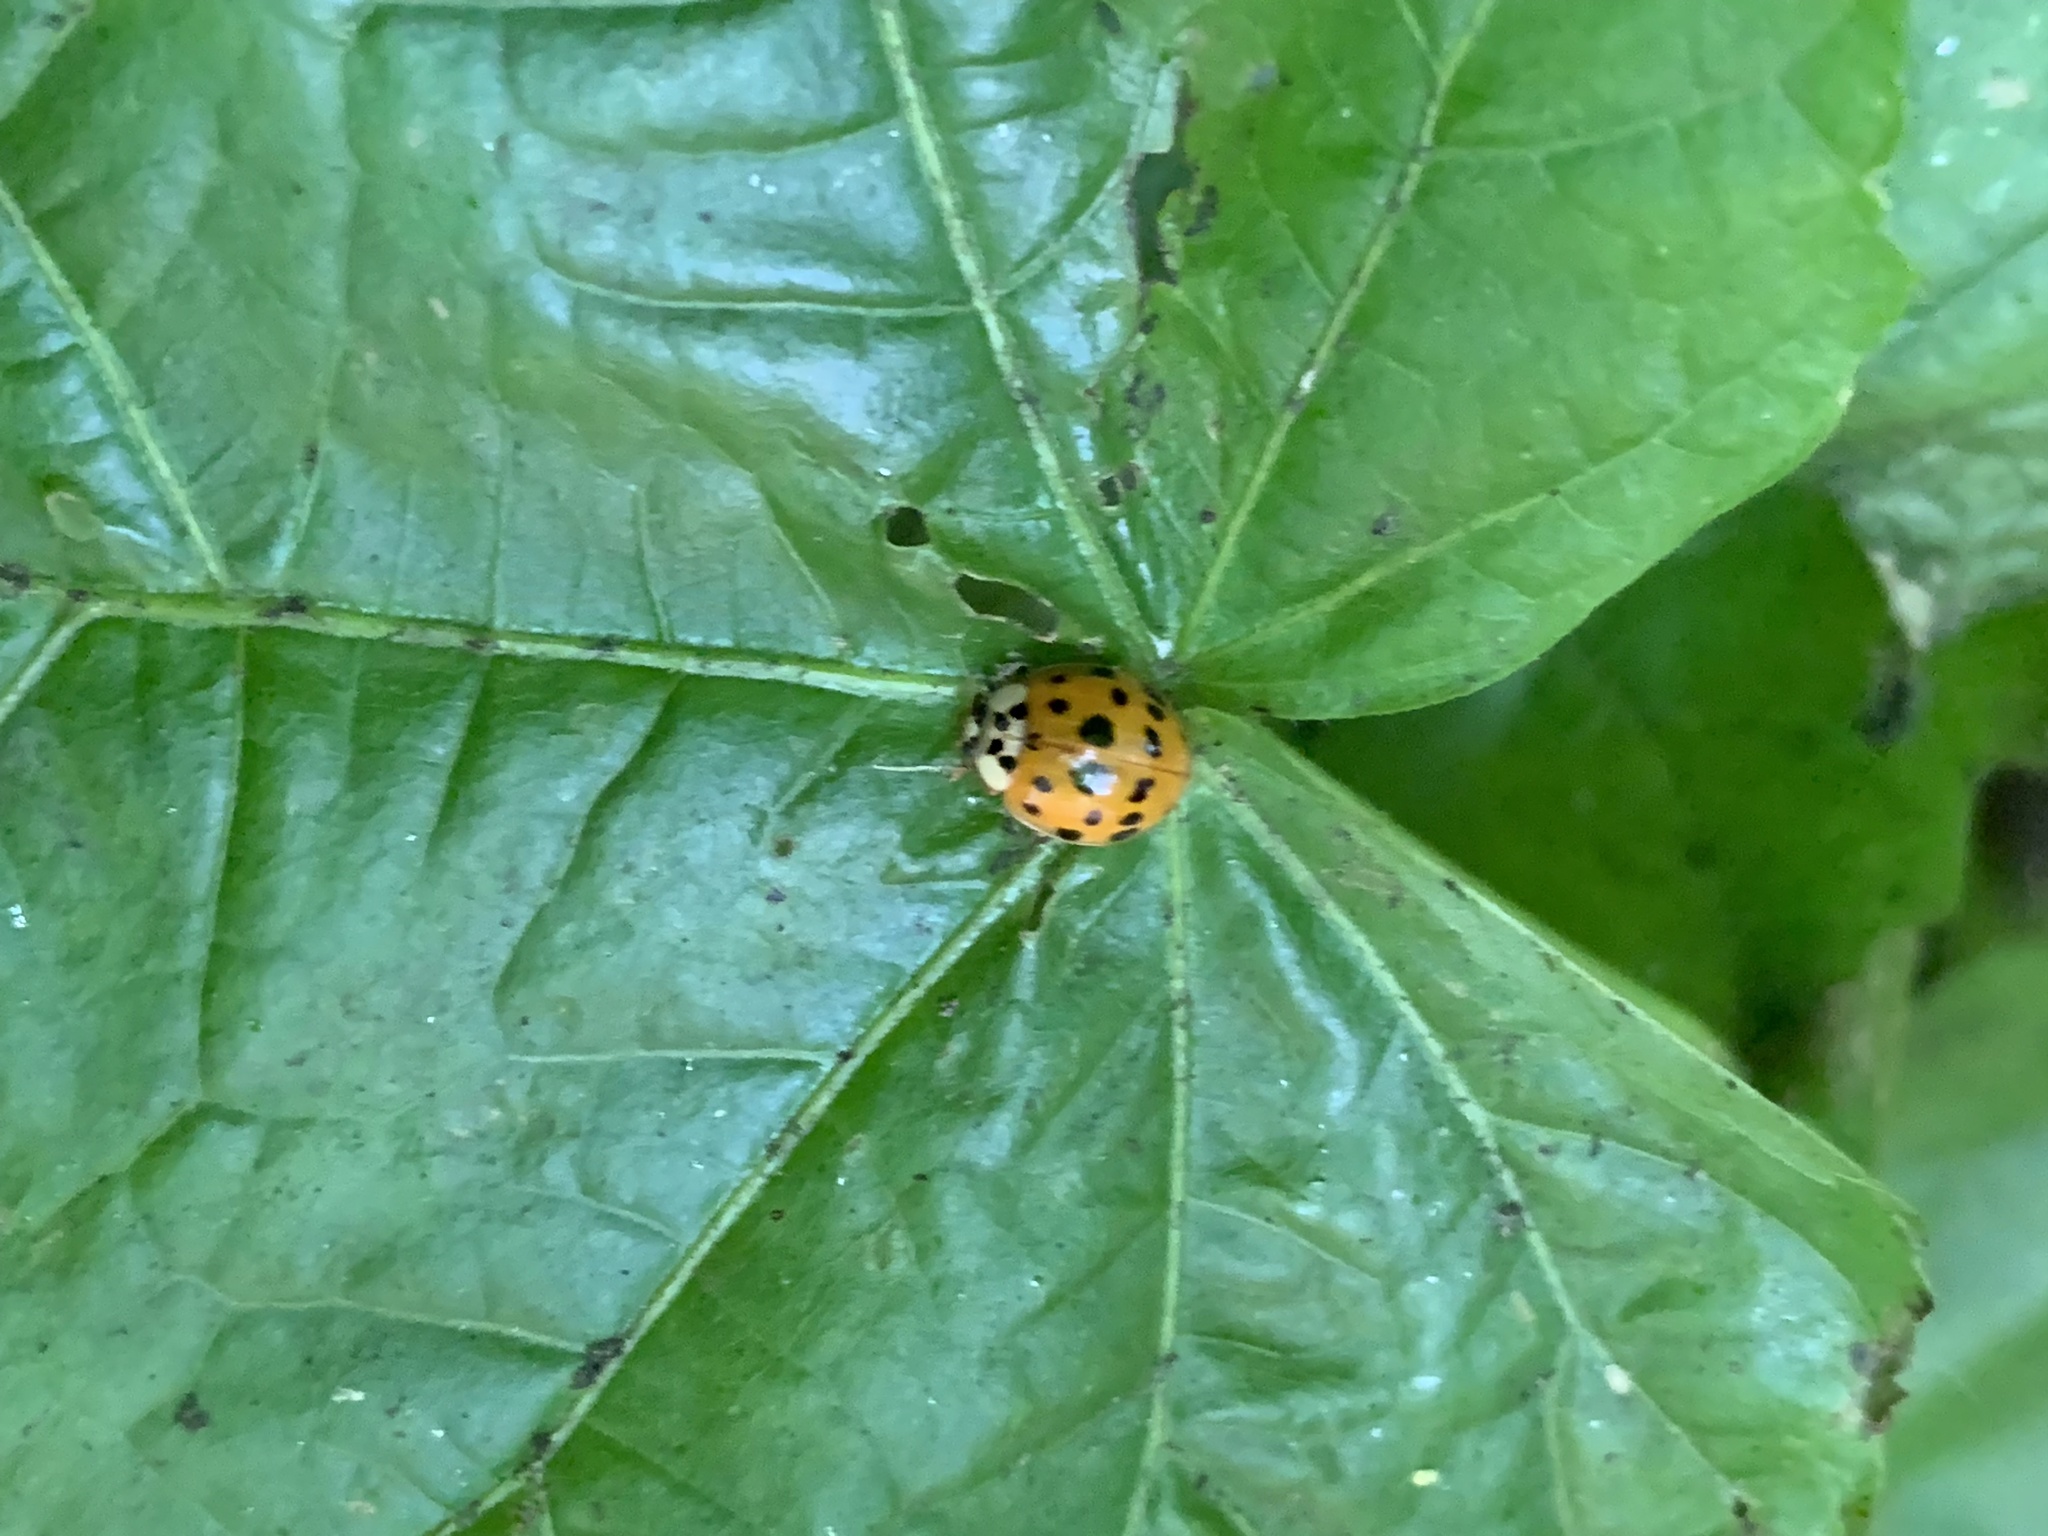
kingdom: Animalia
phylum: Arthropoda
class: Insecta
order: Coleoptera
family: Coccinellidae
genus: Harmonia
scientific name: Harmonia axyridis
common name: Harlequin ladybird
